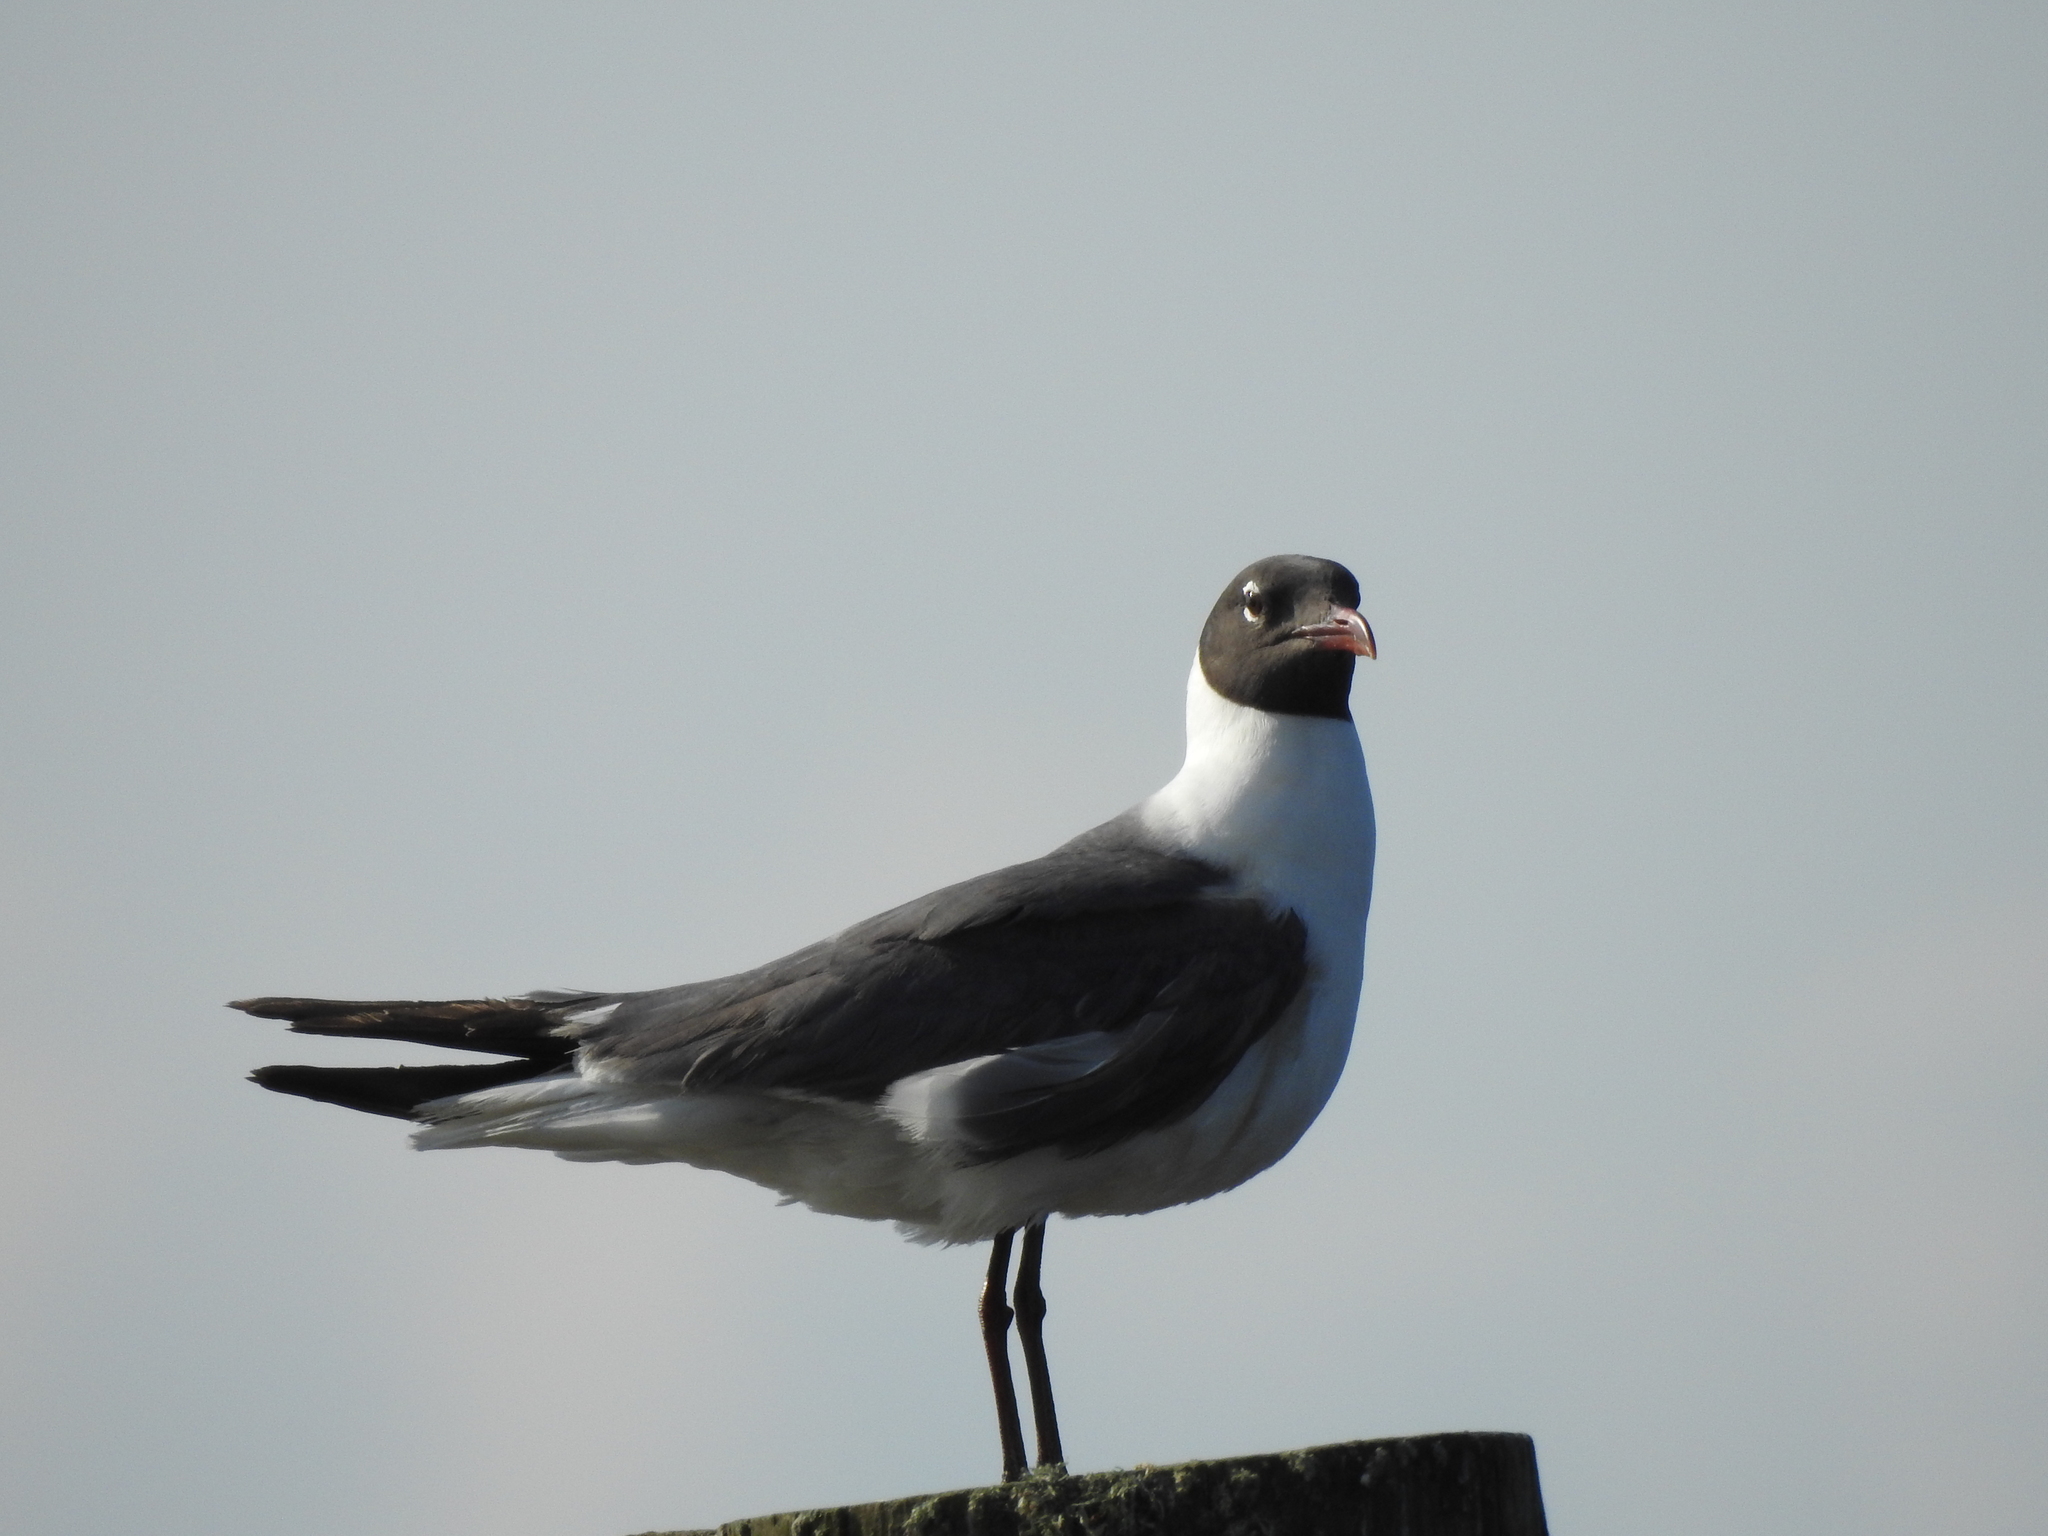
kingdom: Animalia
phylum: Chordata
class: Aves
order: Charadriiformes
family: Laridae
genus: Leucophaeus
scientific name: Leucophaeus atricilla
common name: Laughing gull
